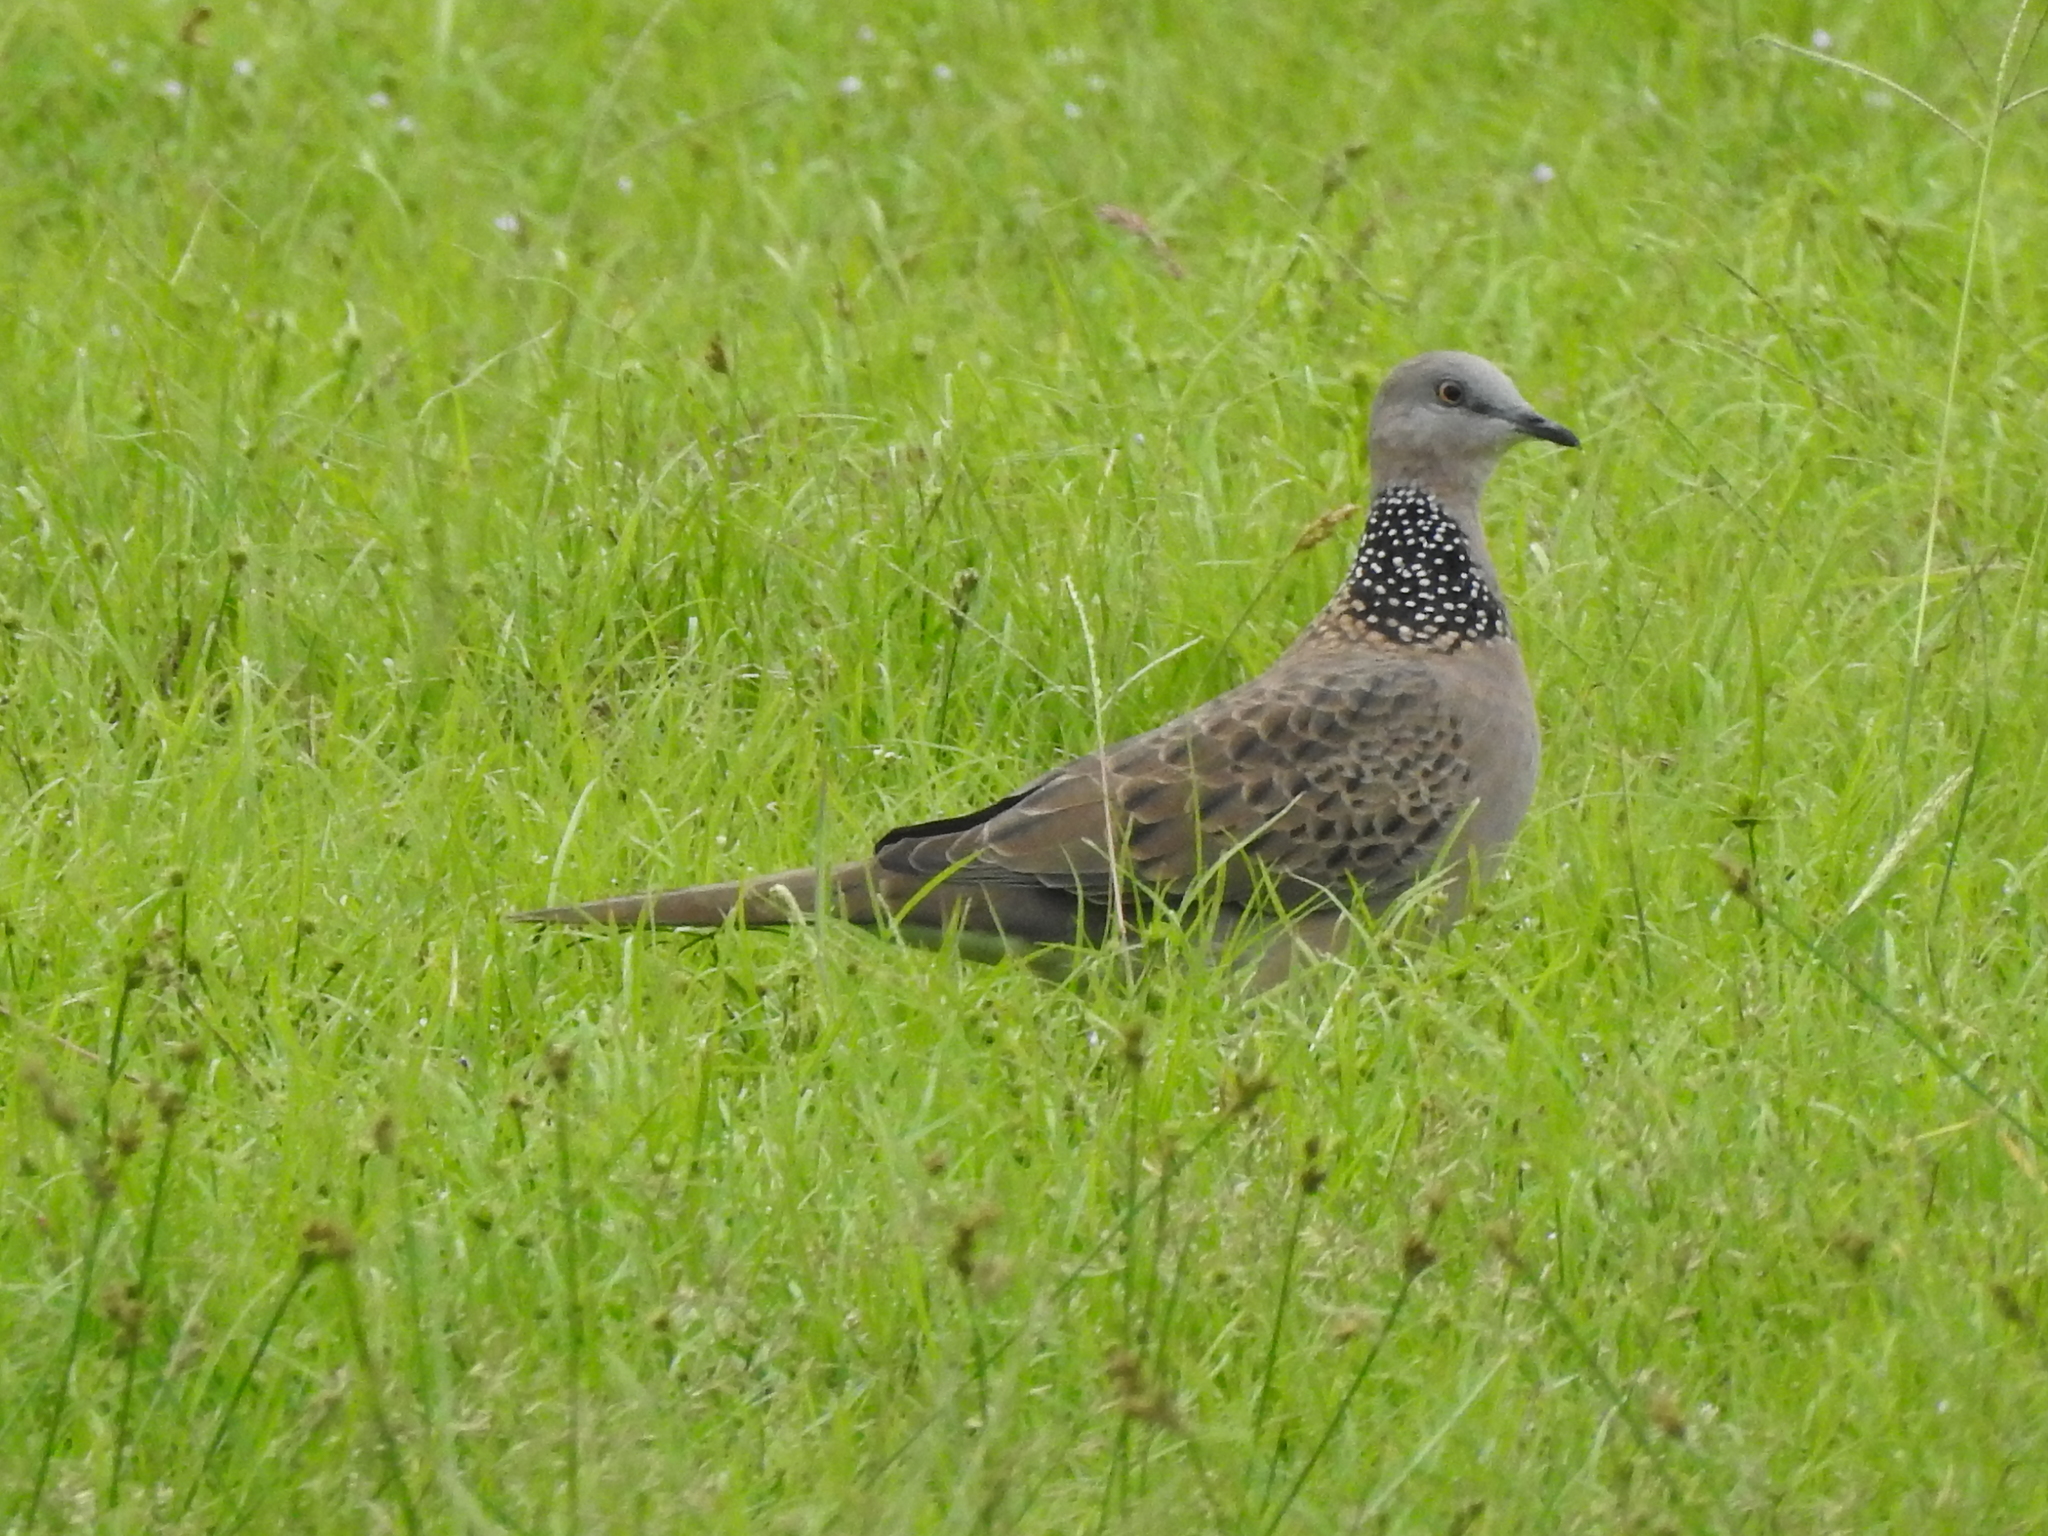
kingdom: Animalia
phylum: Chordata
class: Aves
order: Columbiformes
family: Columbidae
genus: Spilopelia
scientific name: Spilopelia chinensis
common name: Spotted dove
